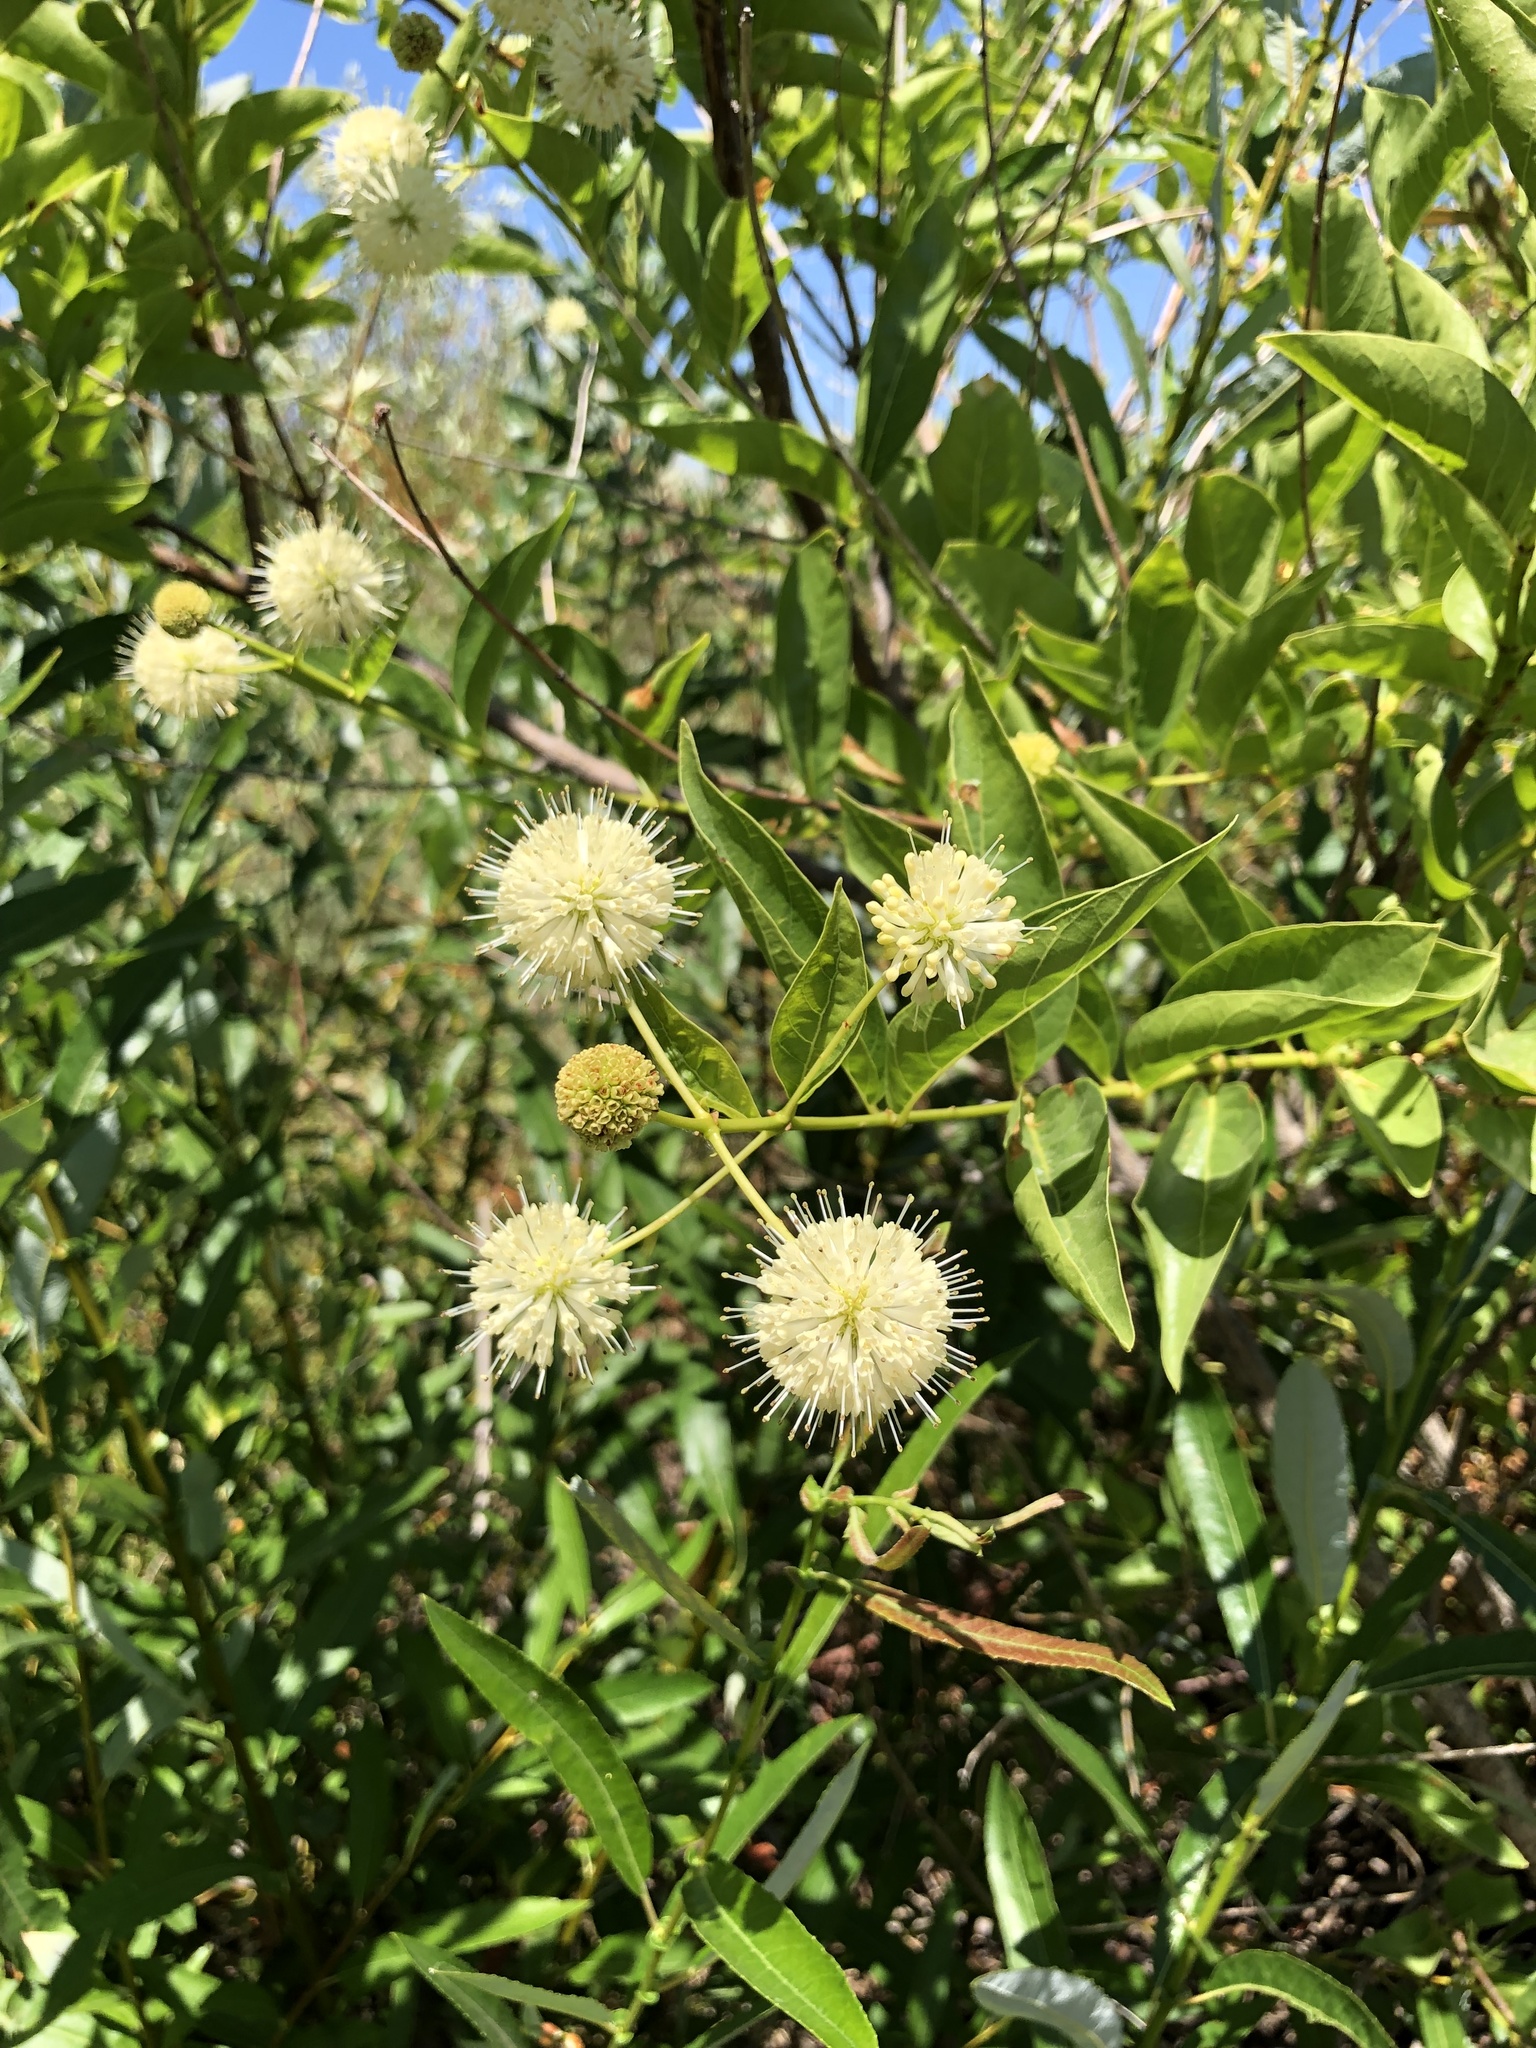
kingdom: Plantae
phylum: Tracheophyta
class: Magnoliopsida
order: Gentianales
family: Rubiaceae
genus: Cephalanthus
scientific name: Cephalanthus occidentalis
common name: Button-willow
